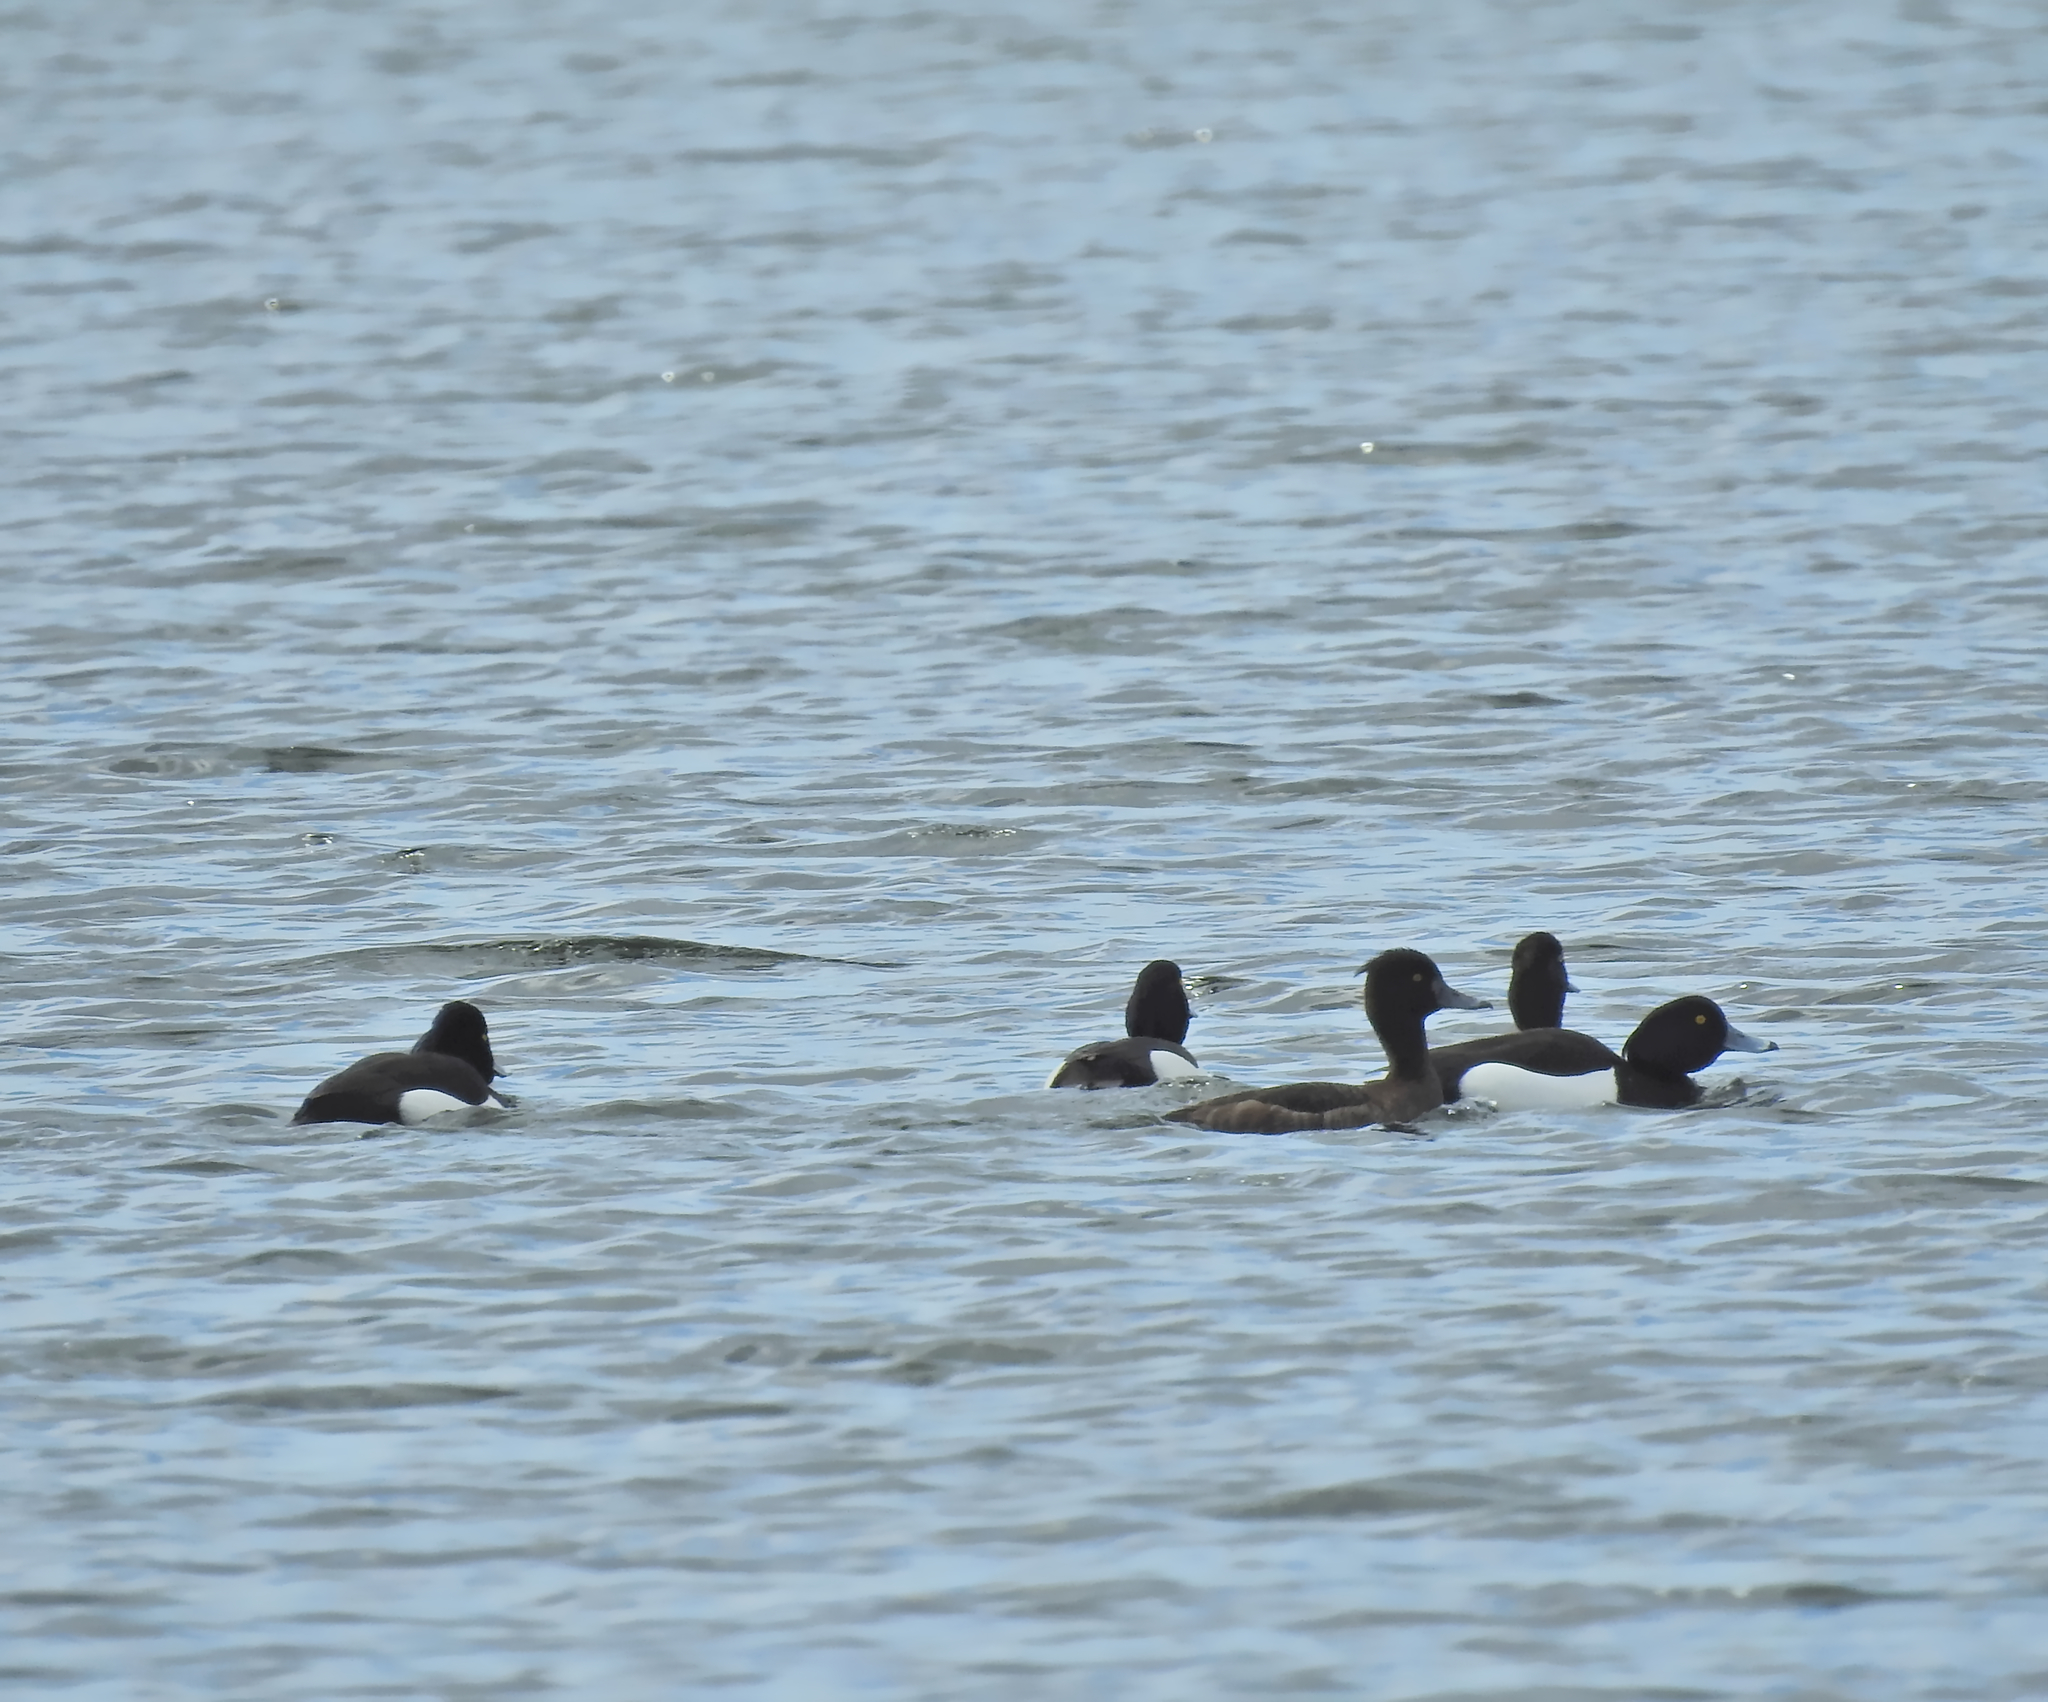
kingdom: Animalia
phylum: Chordata
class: Aves
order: Anseriformes
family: Anatidae
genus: Aythya
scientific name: Aythya fuligula
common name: Tufted duck
